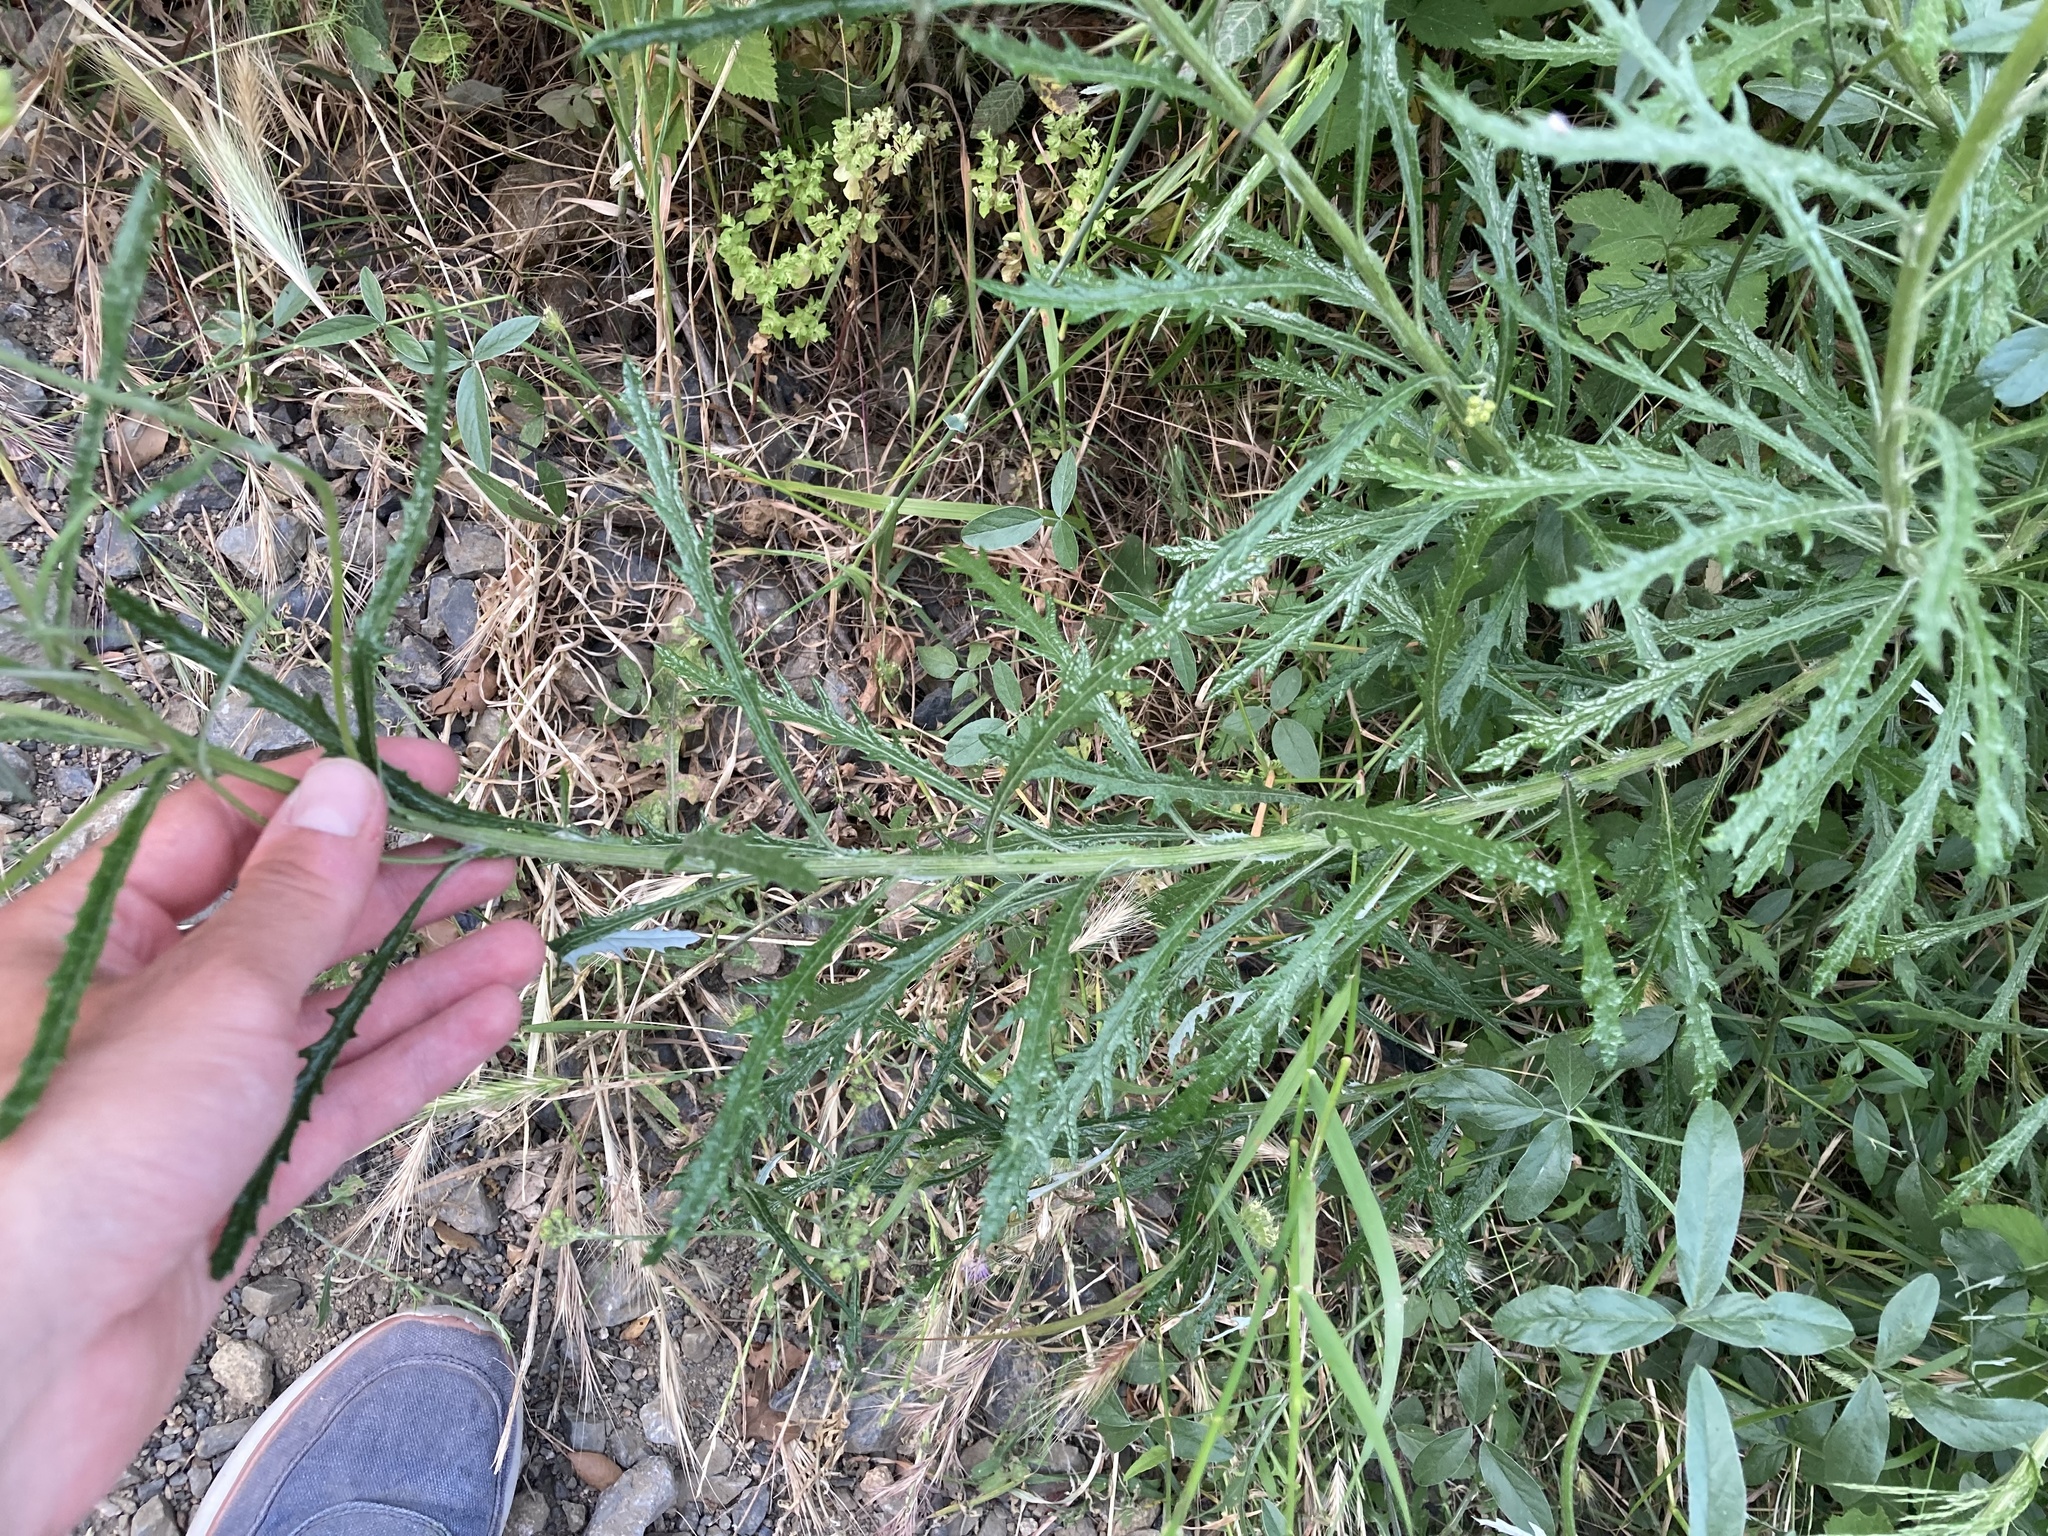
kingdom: Plantae
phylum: Tracheophyta
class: Magnoliopsida
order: Asterales
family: Asteraceae
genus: Senecio
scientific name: Senecio pterophorus
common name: Shoddy ragwort
